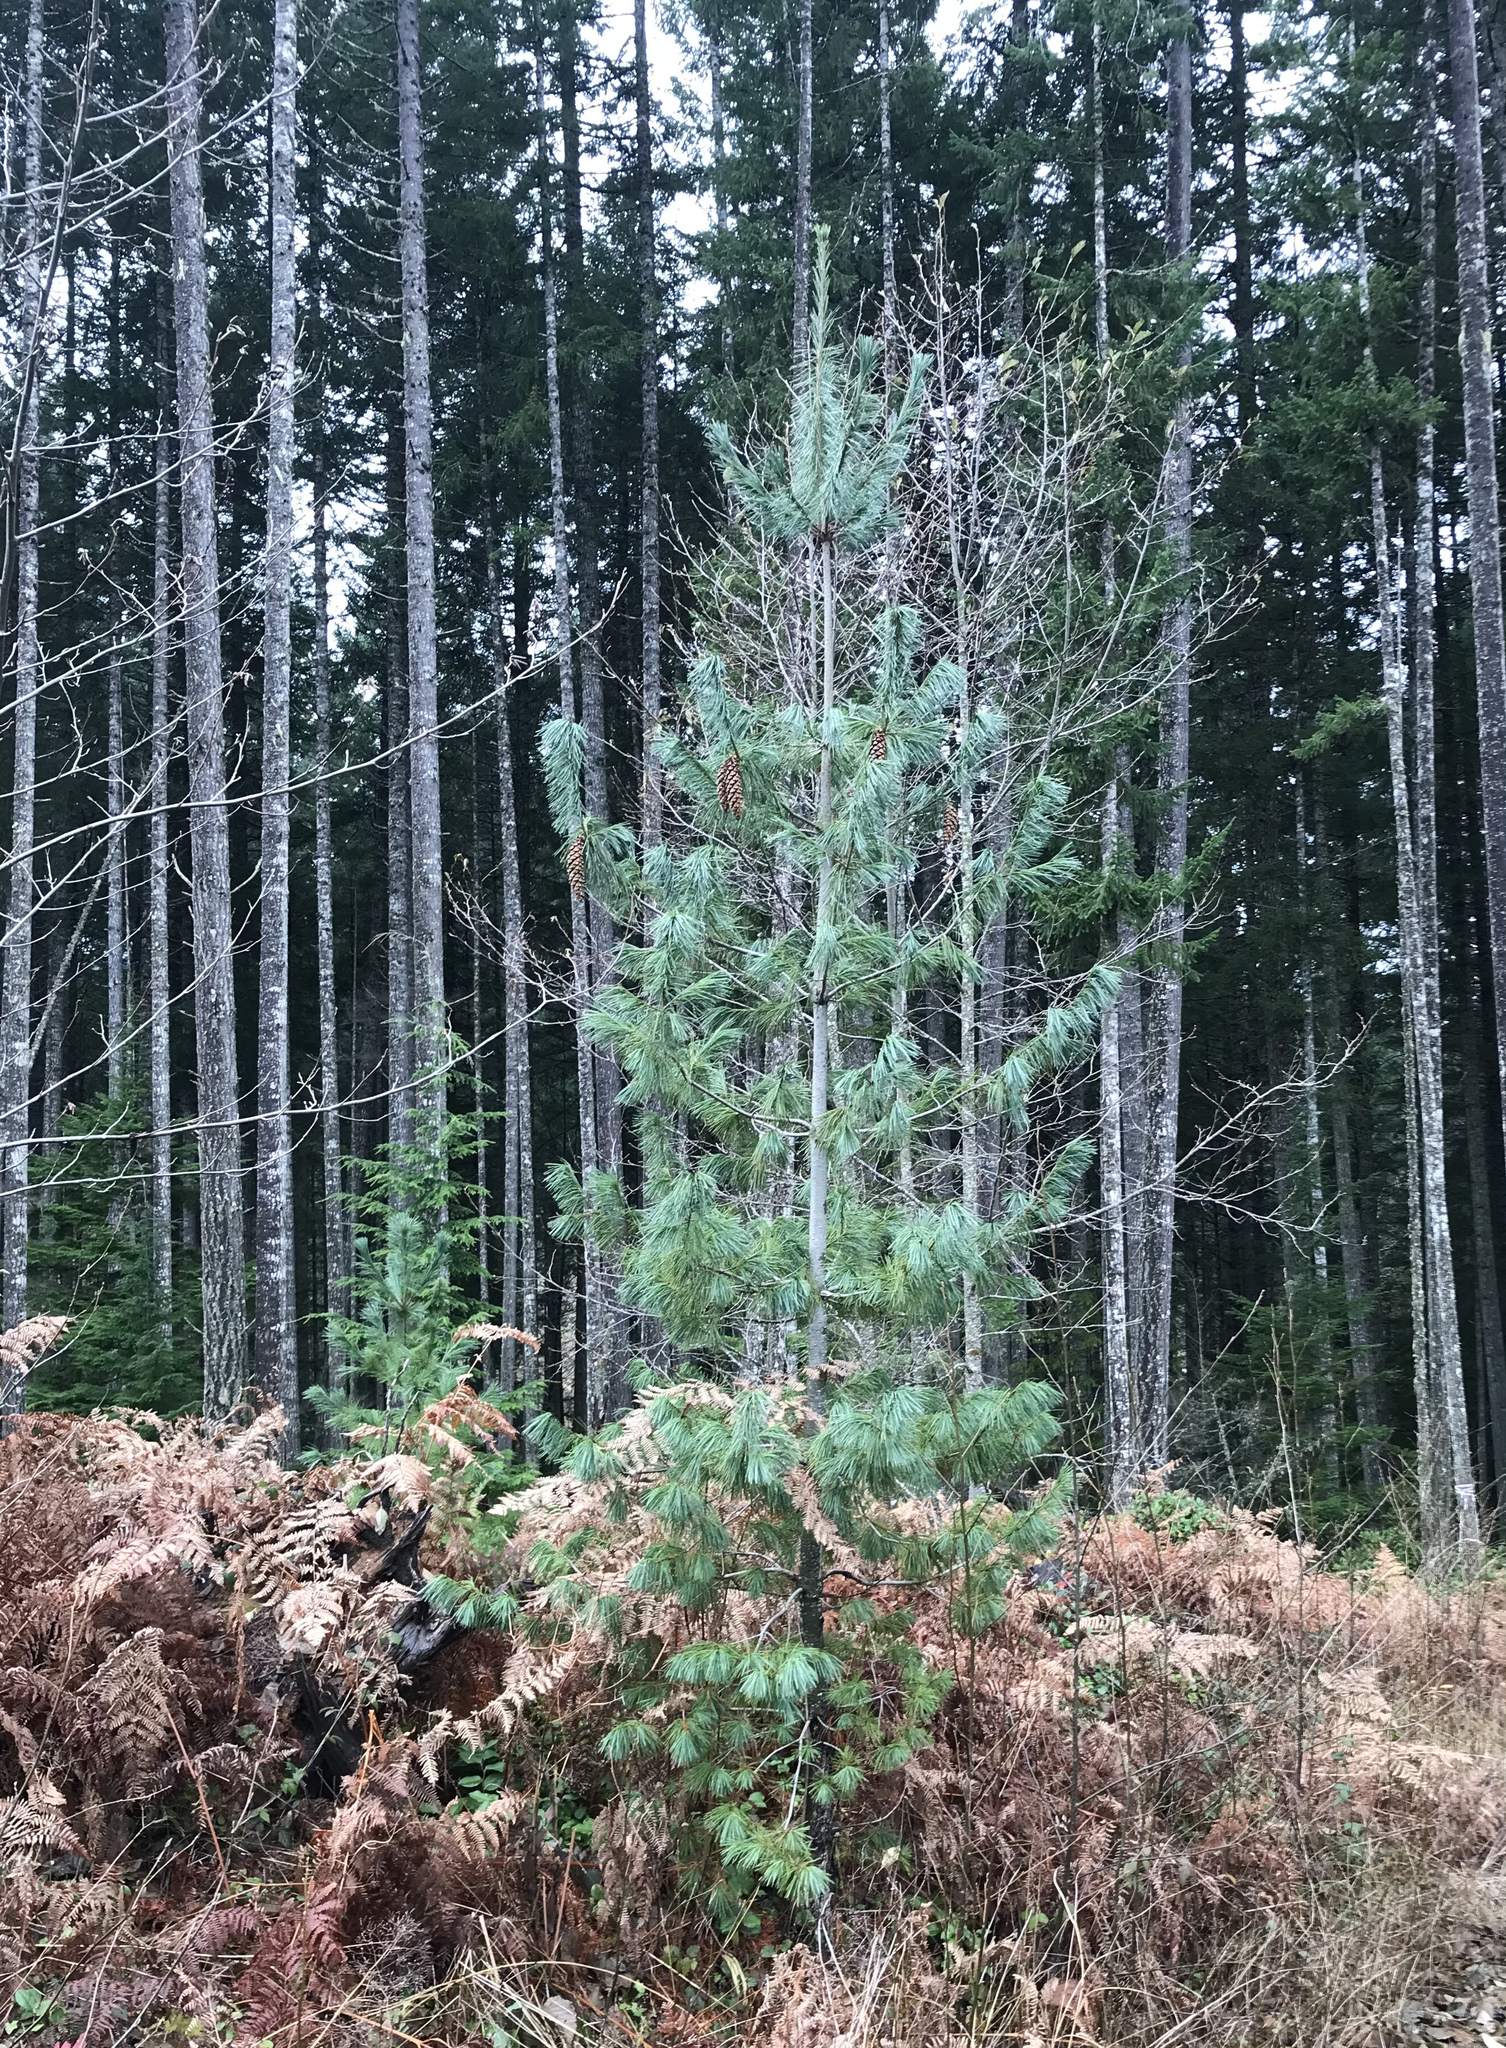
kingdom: Plantae
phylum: Tracheophyta
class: Pinopsida
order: Pinales
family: Pinaceae
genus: Pinus
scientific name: Pinus monticola
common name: Western white pine
